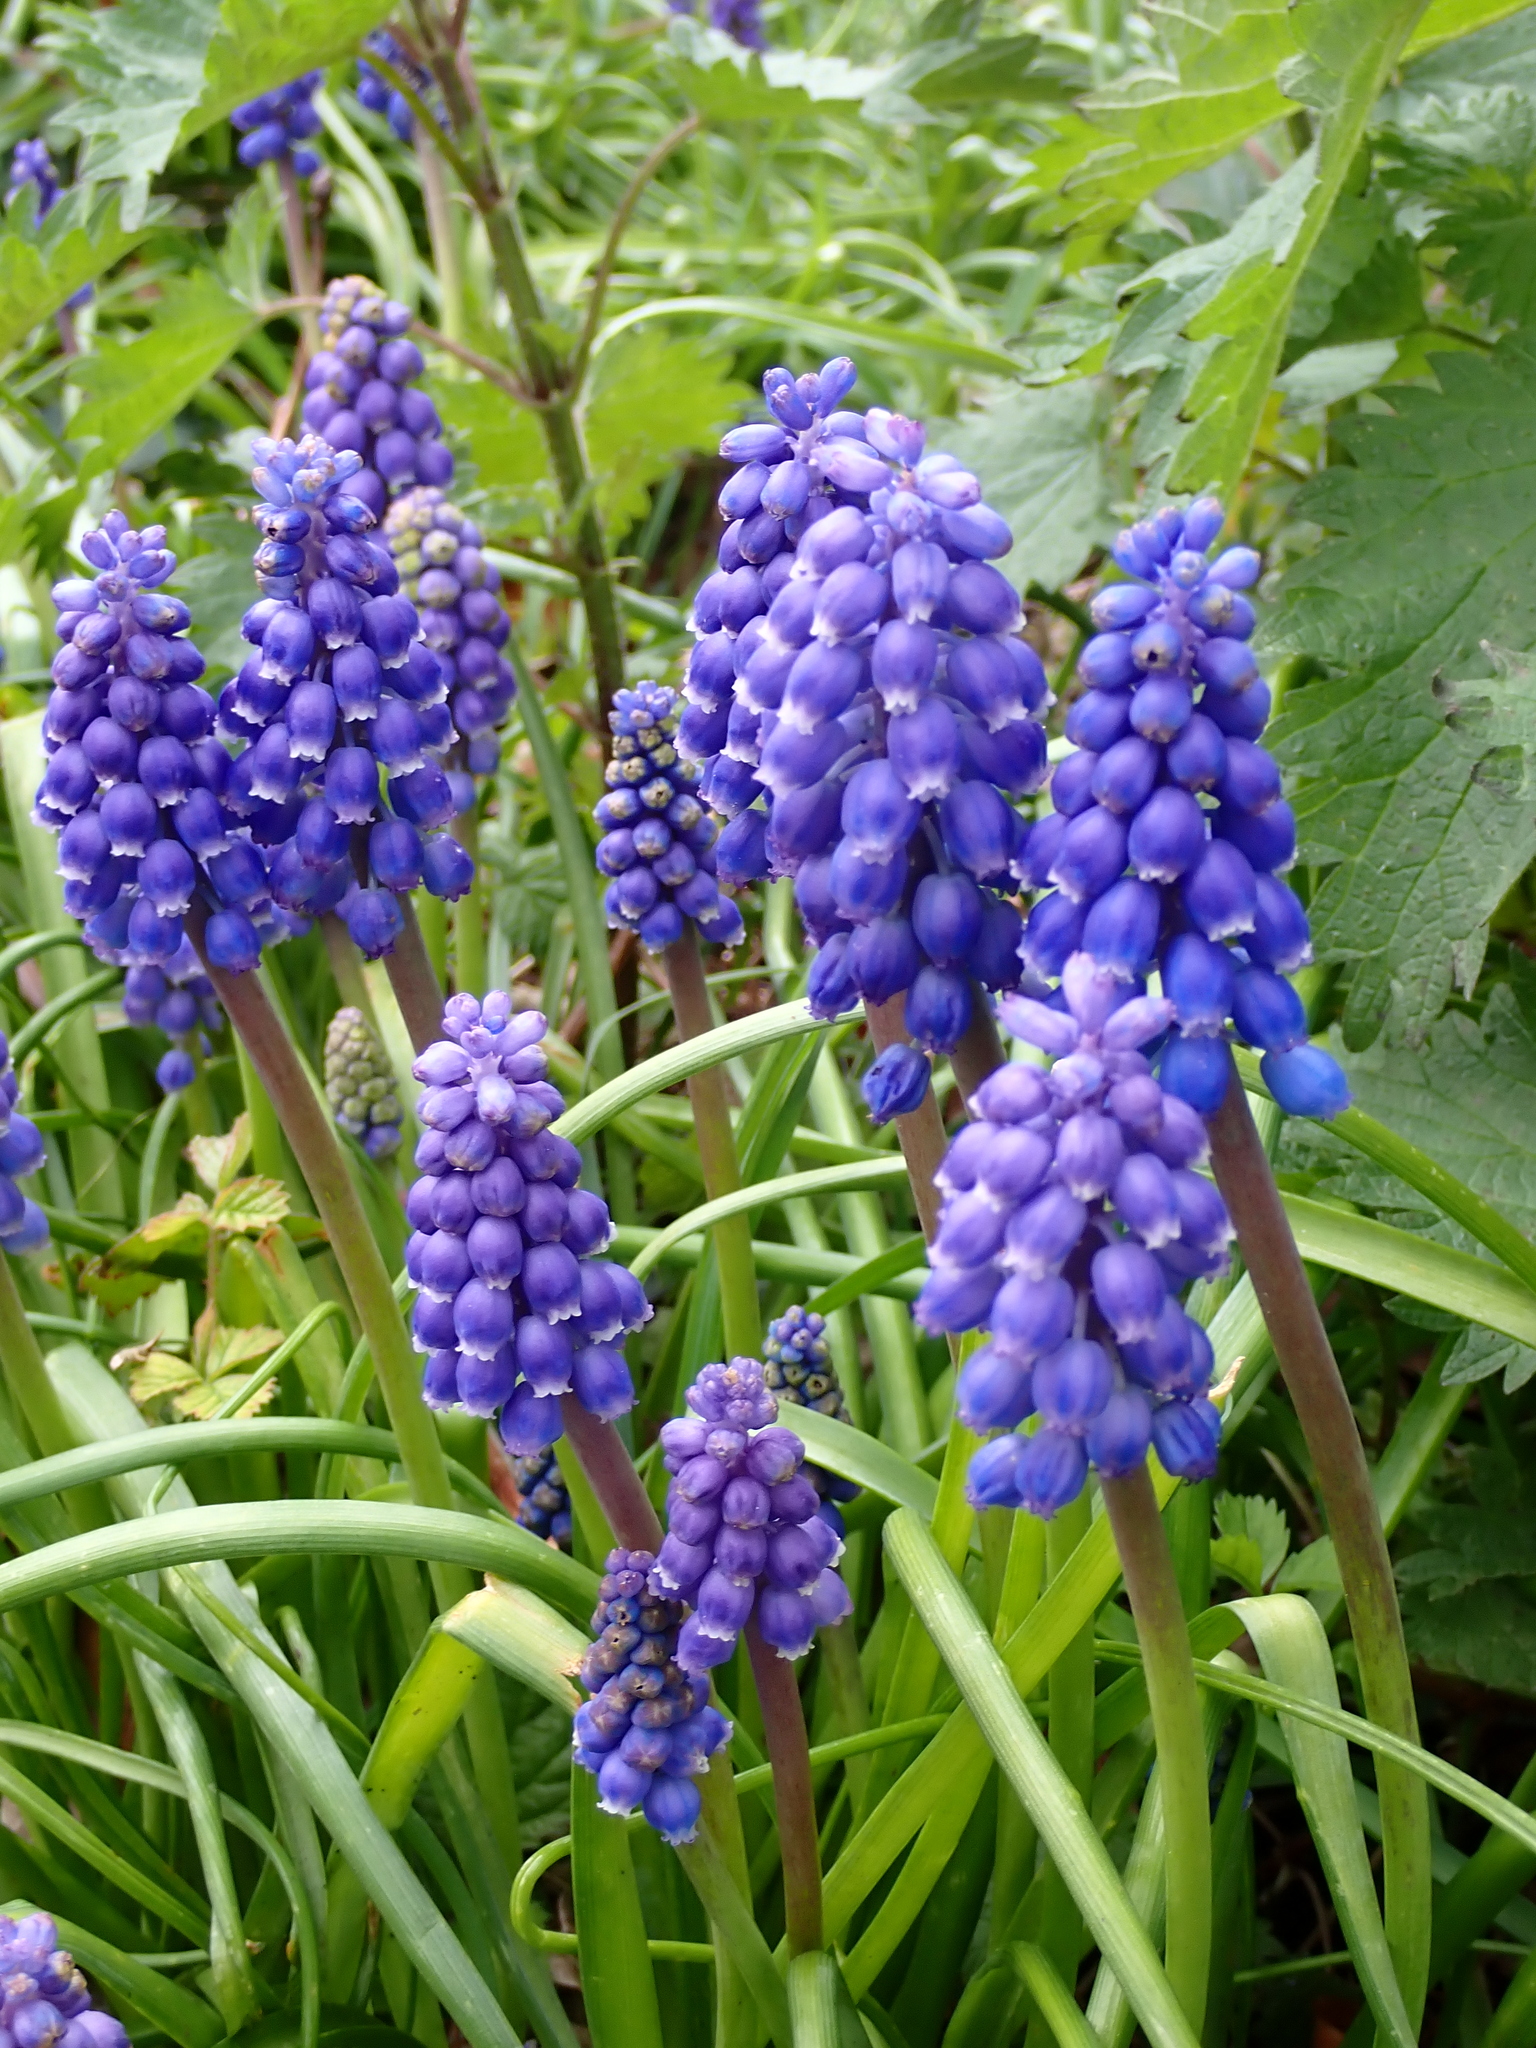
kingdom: Plantae
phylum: Tracheophyta
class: Liliopsida
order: Asparagales
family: Asparagaceae
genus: Muscari
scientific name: Muscari armeniacum
